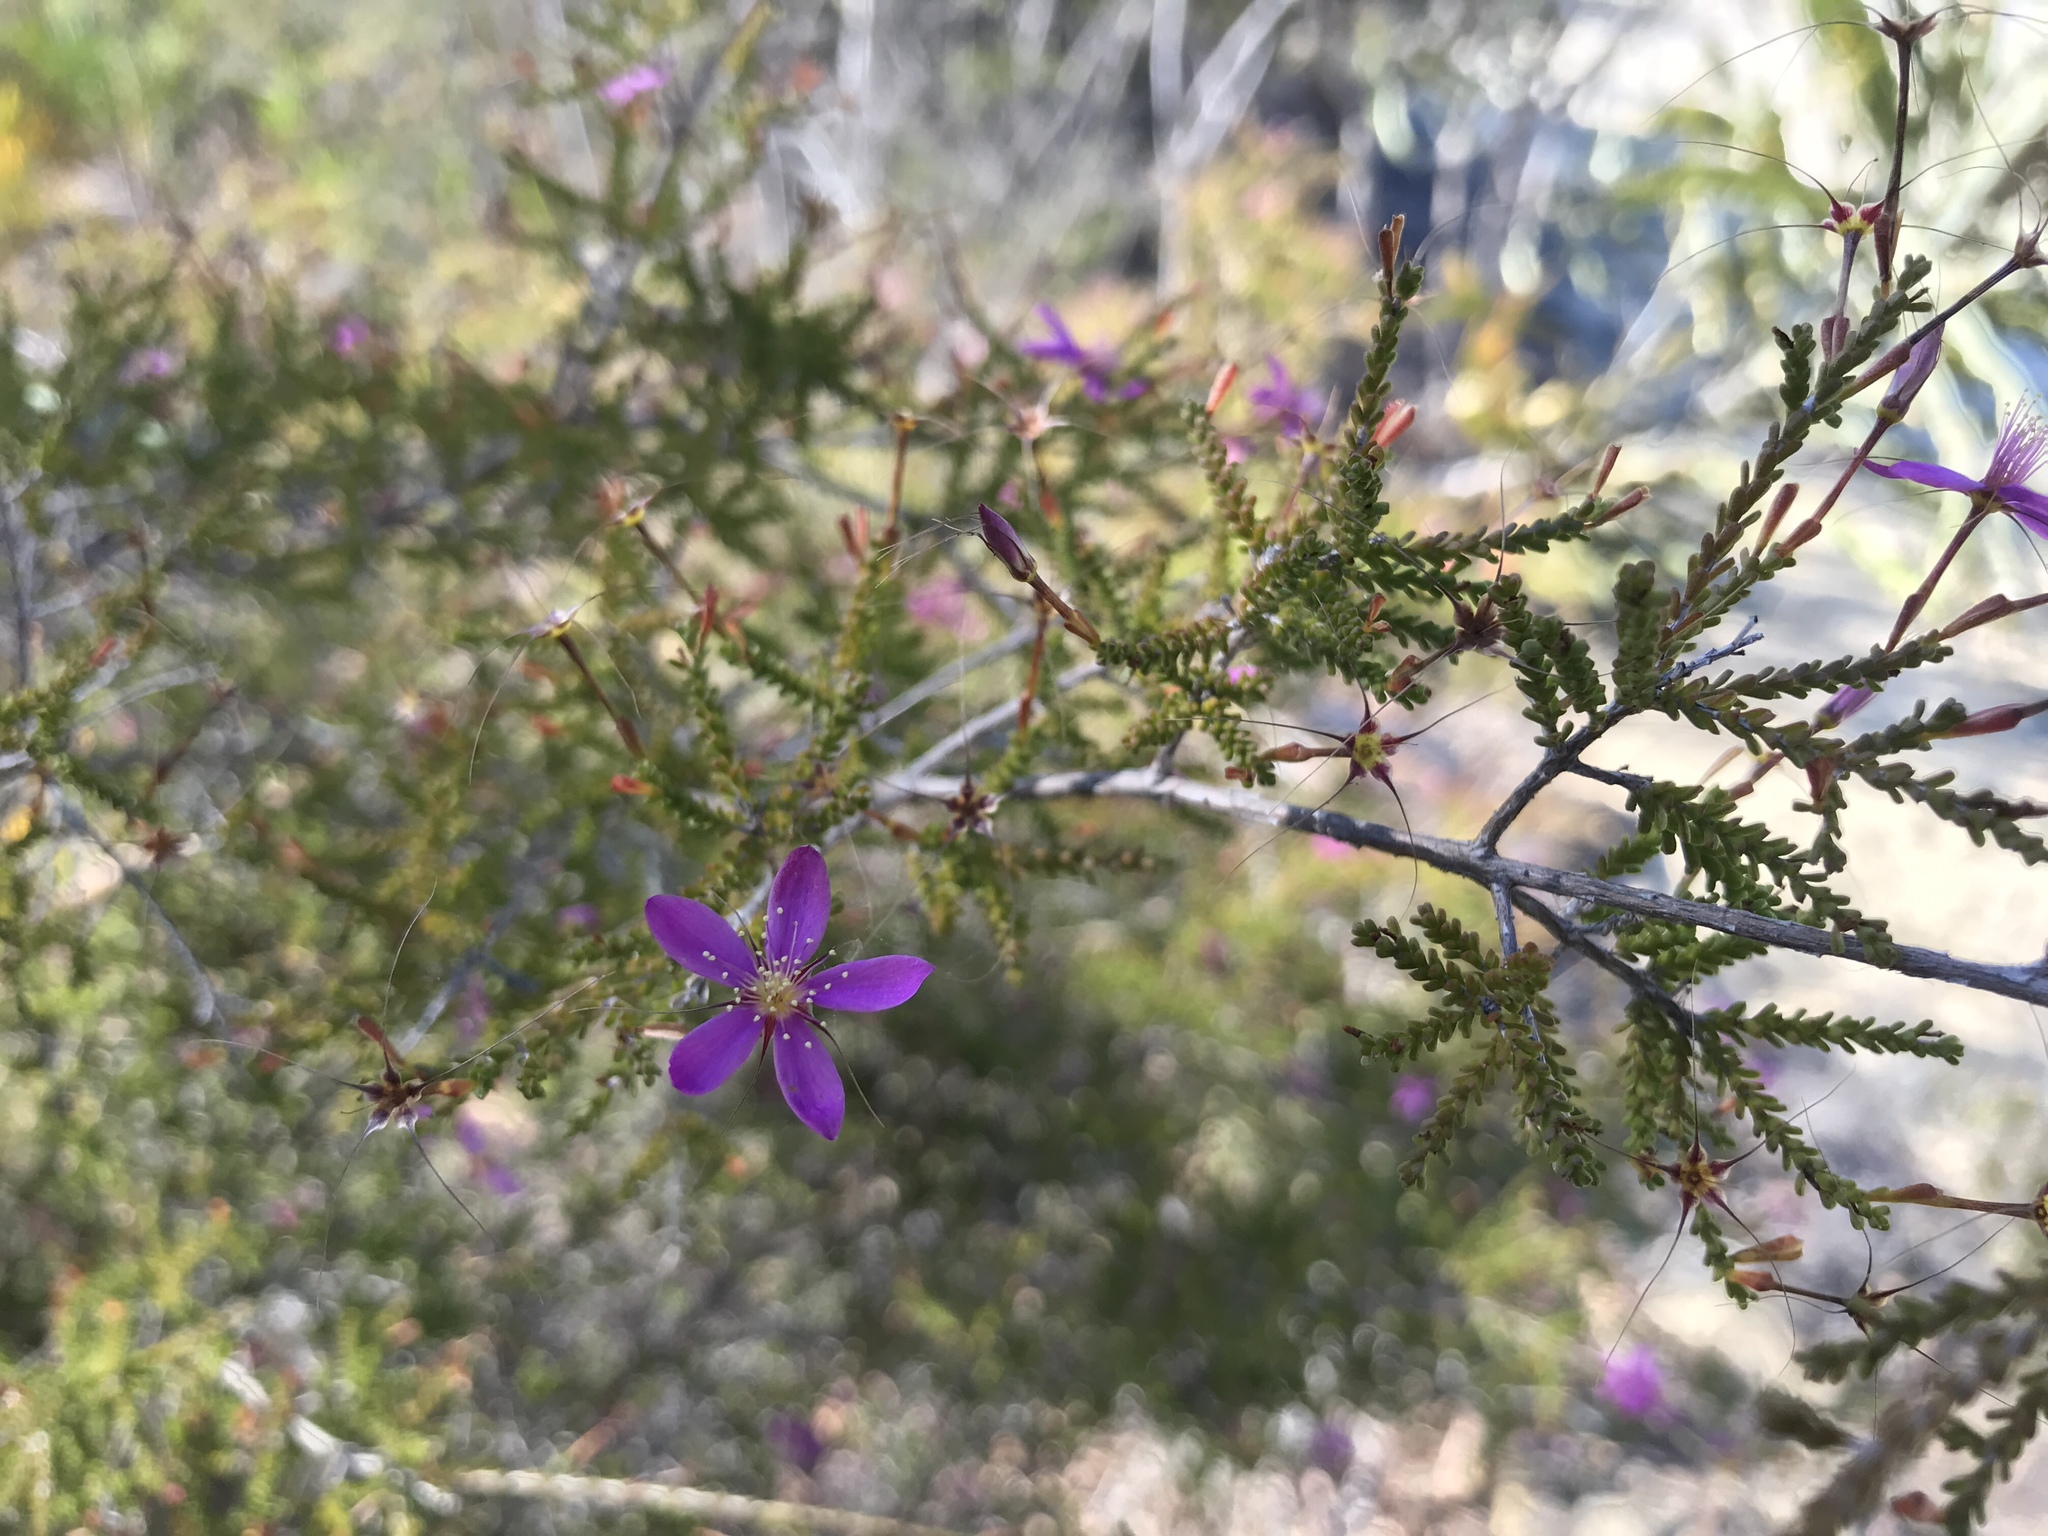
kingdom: Plantae
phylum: Tracheophyta
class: Magnoliopsida
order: Myrtales
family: Myrtaceae
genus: Calytrix
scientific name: Calytrix fraseri
